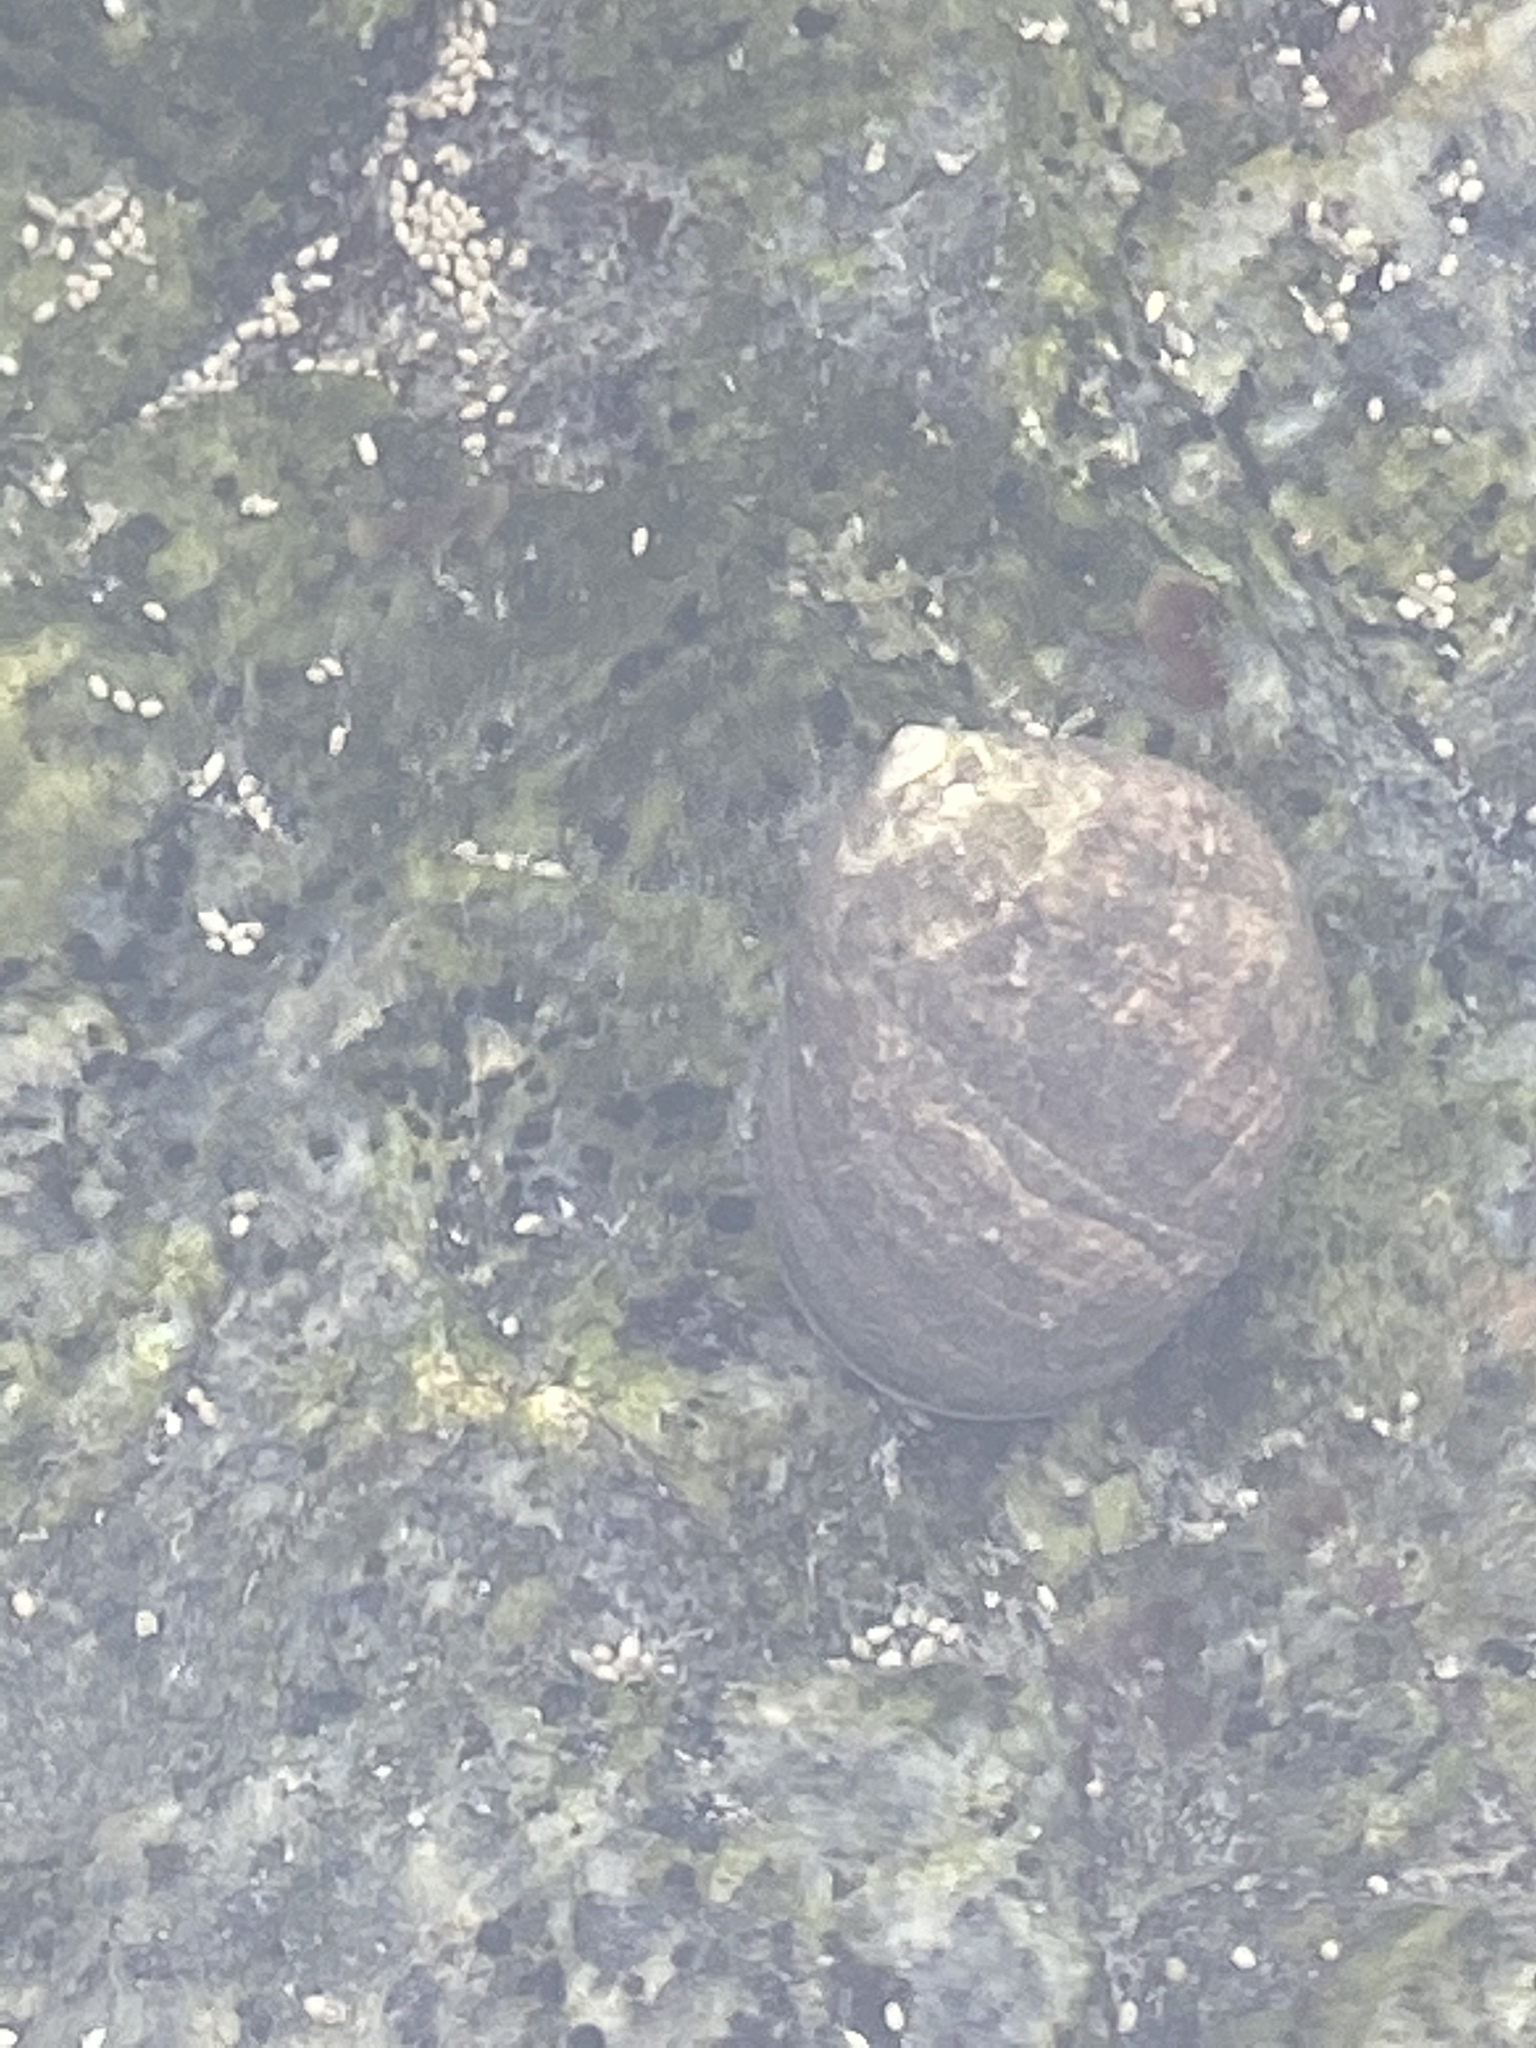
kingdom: Animalia
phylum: Mollusca
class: Gastropoda
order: Littorinimorpha
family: Littorinidae
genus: Littorina
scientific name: Littorina littorea
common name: Common periwinkle
